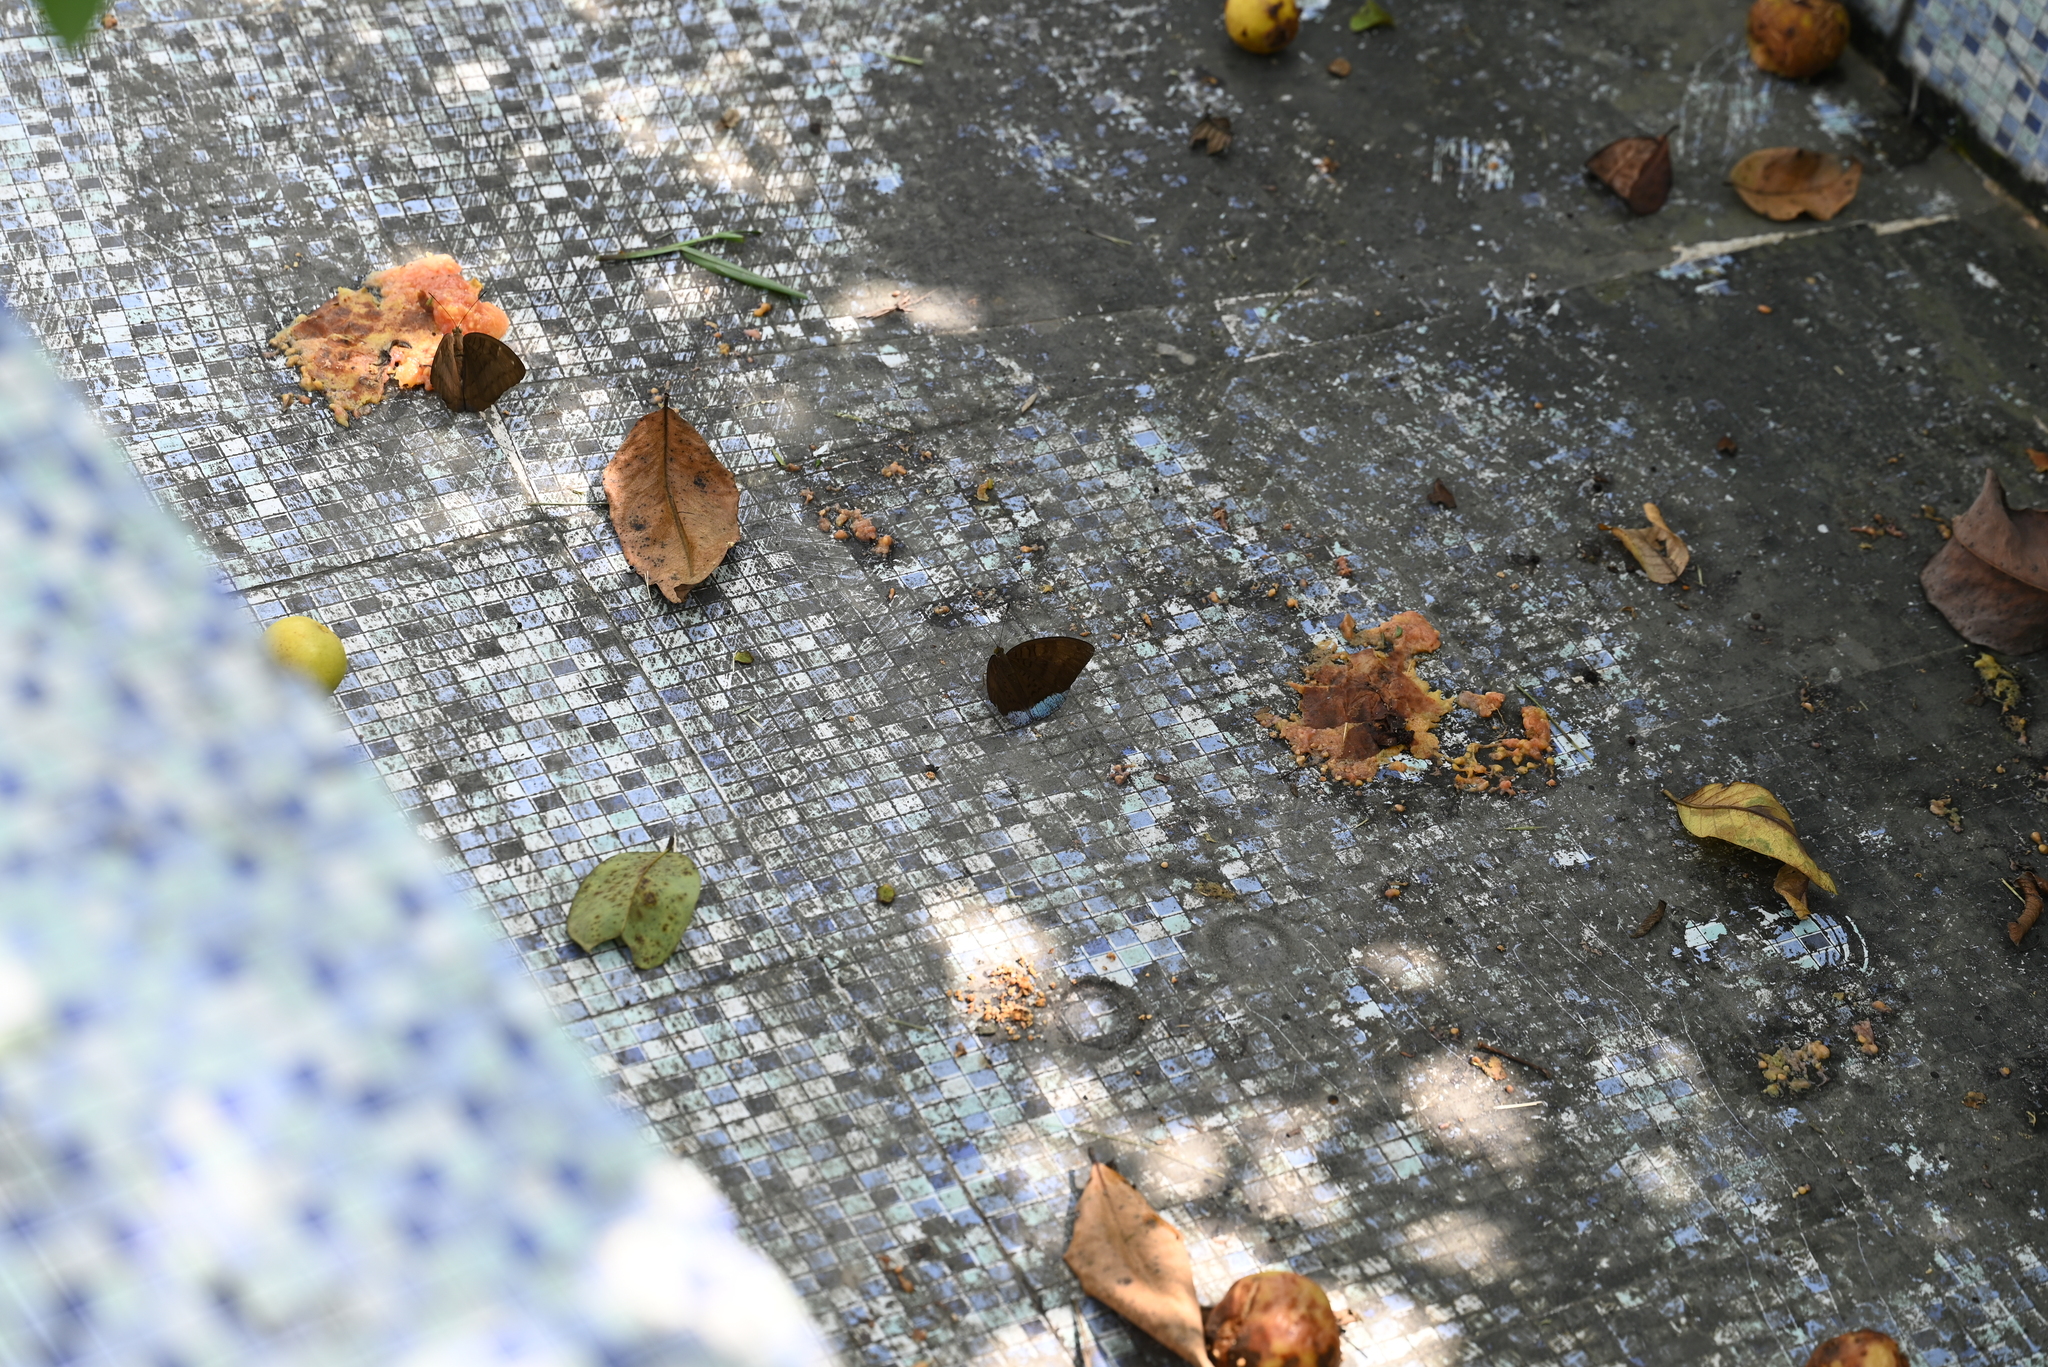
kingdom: Animalia
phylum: Arthropoda
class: Insecta
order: Lepidoptera
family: Nymphalidae
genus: Tanaecia
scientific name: Tanaecia julii
